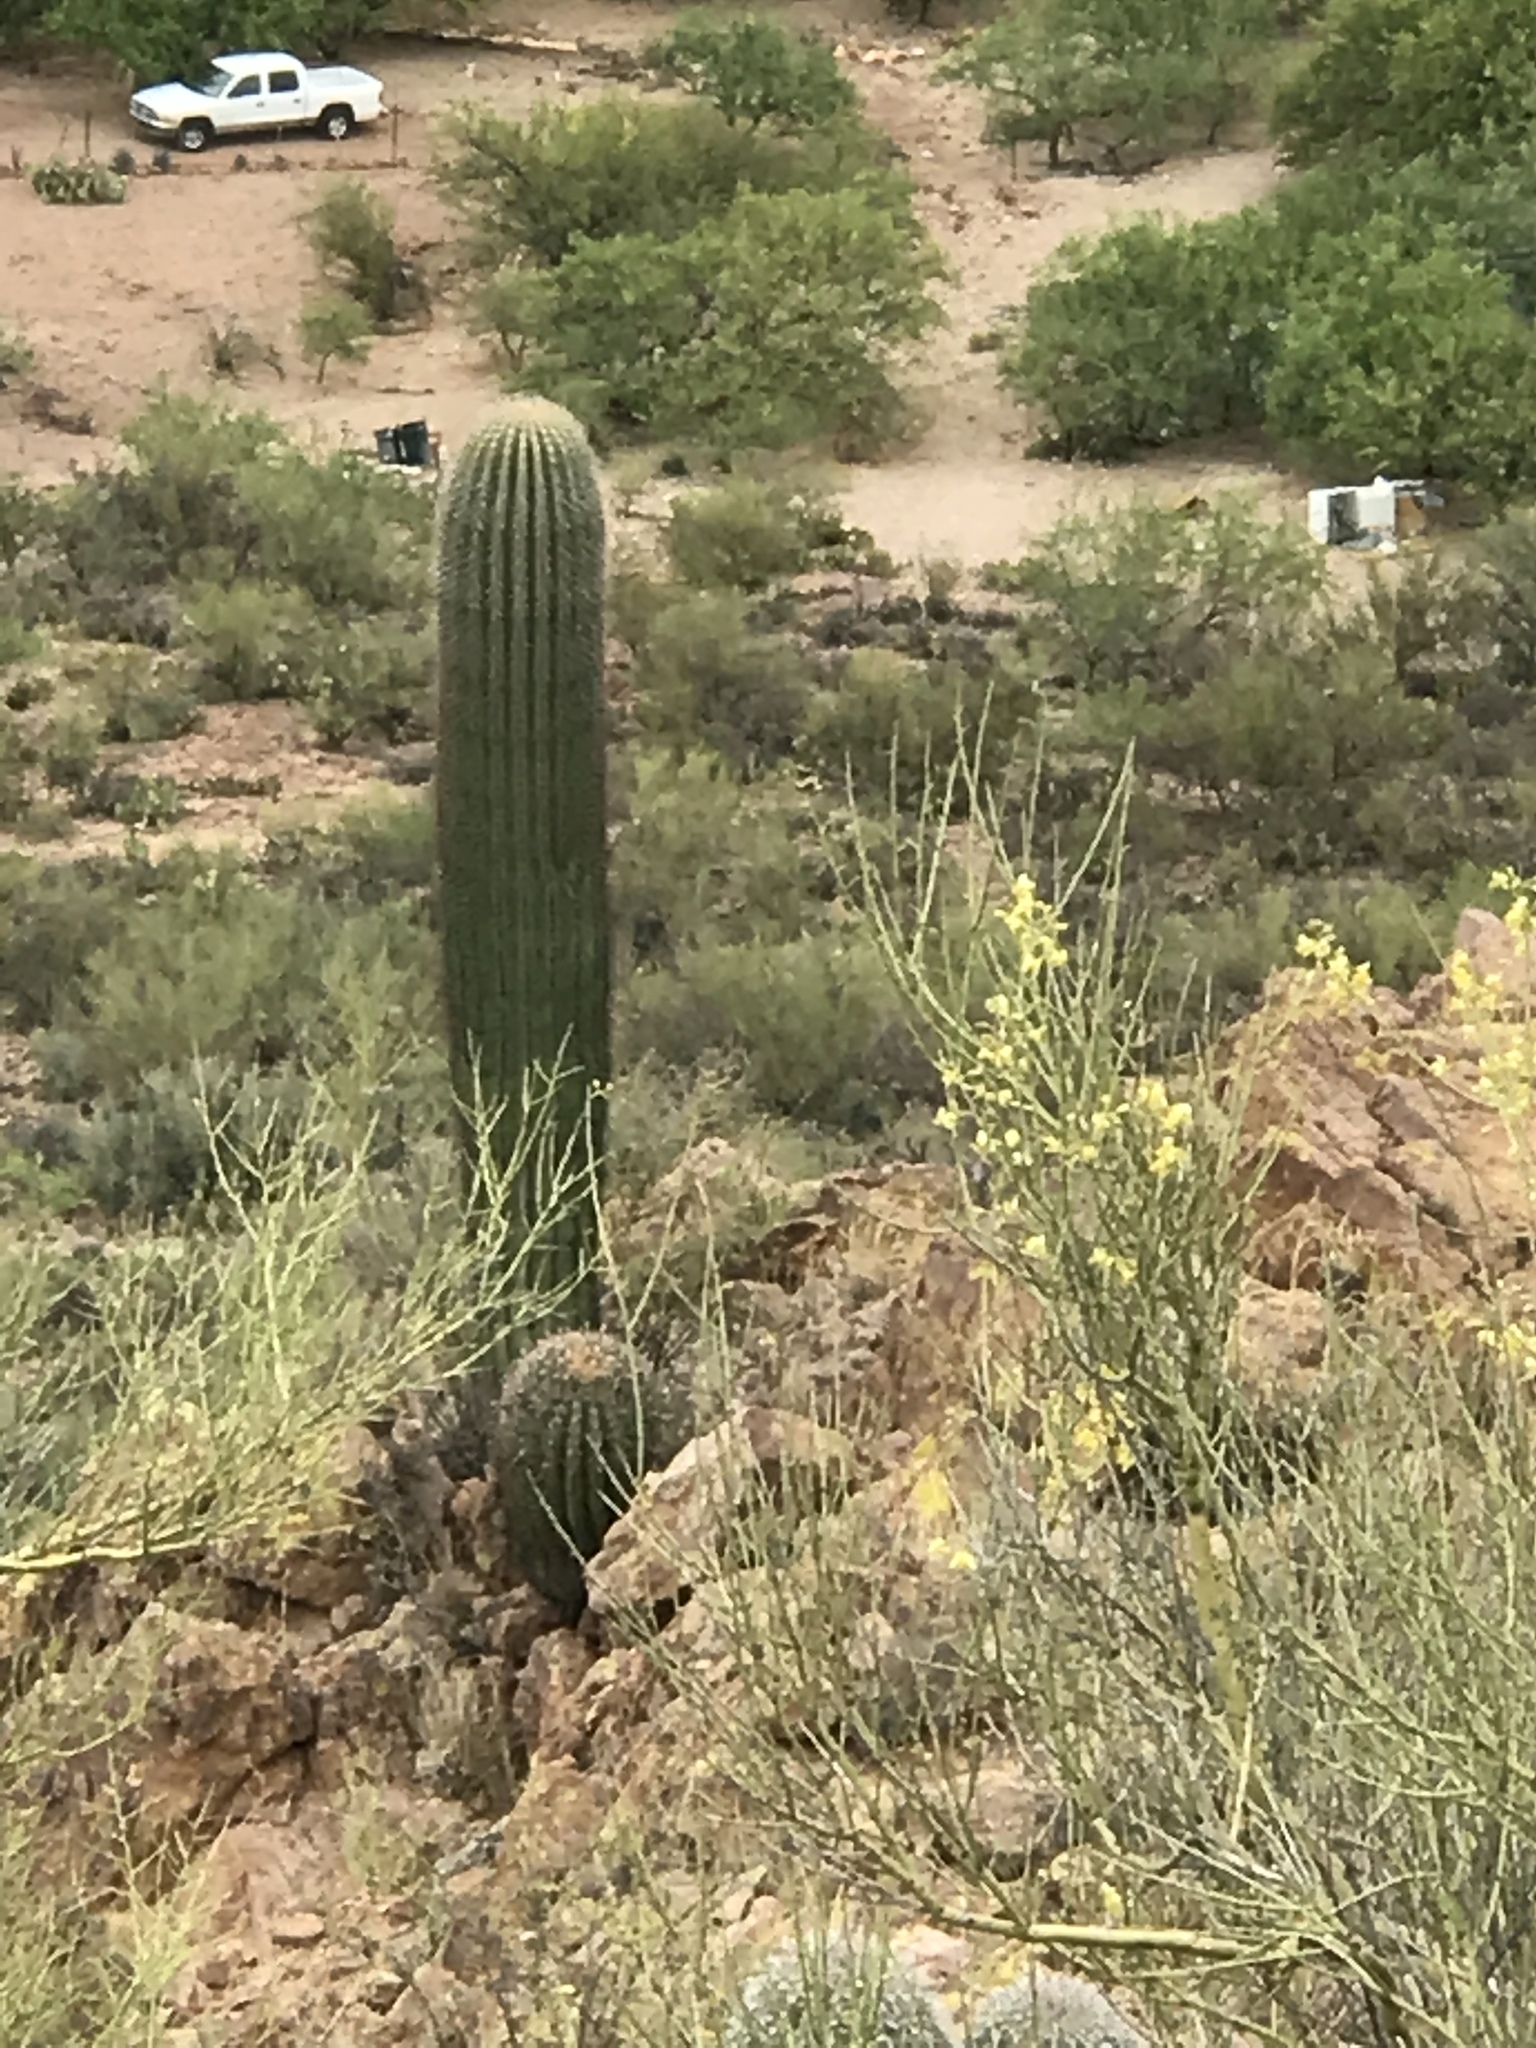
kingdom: Plantae
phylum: Tracheophyta
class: Magnoliopsida
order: Caryophyllales
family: Cactaceae
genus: Carnegiea
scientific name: Carnegiea gigantea
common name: Saguaro
